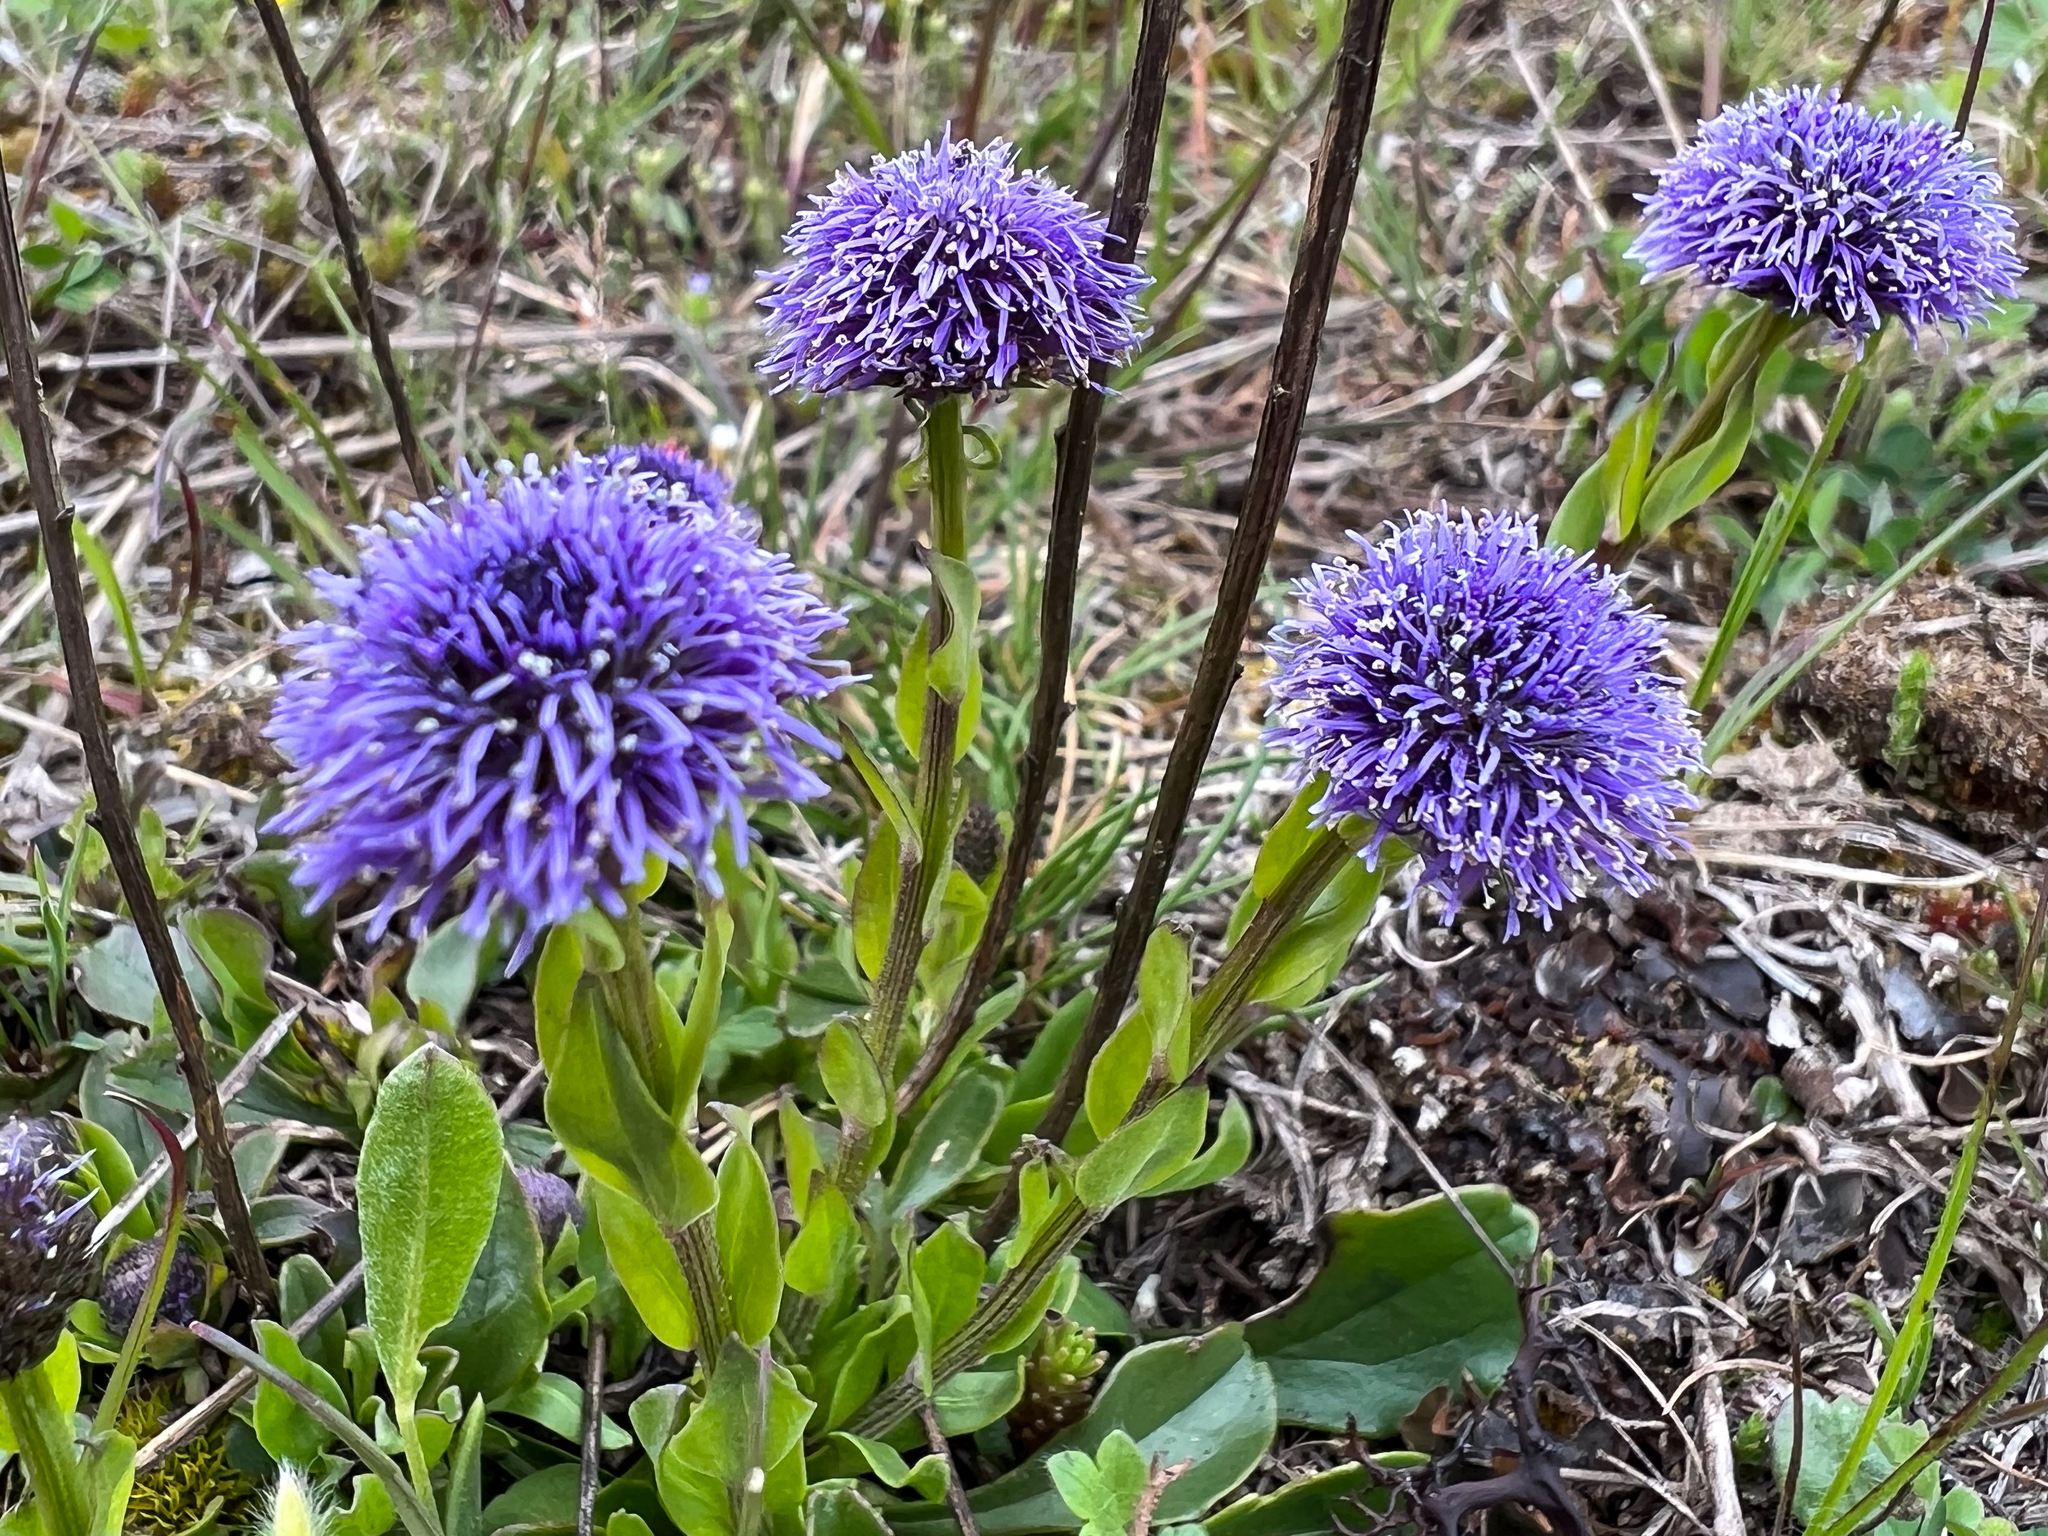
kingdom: Plantae
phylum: Tracheophyta
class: Magnoliopsida
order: Lamiales
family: Plantaginaceae
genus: Globularia
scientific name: Globularia bisnagarica
